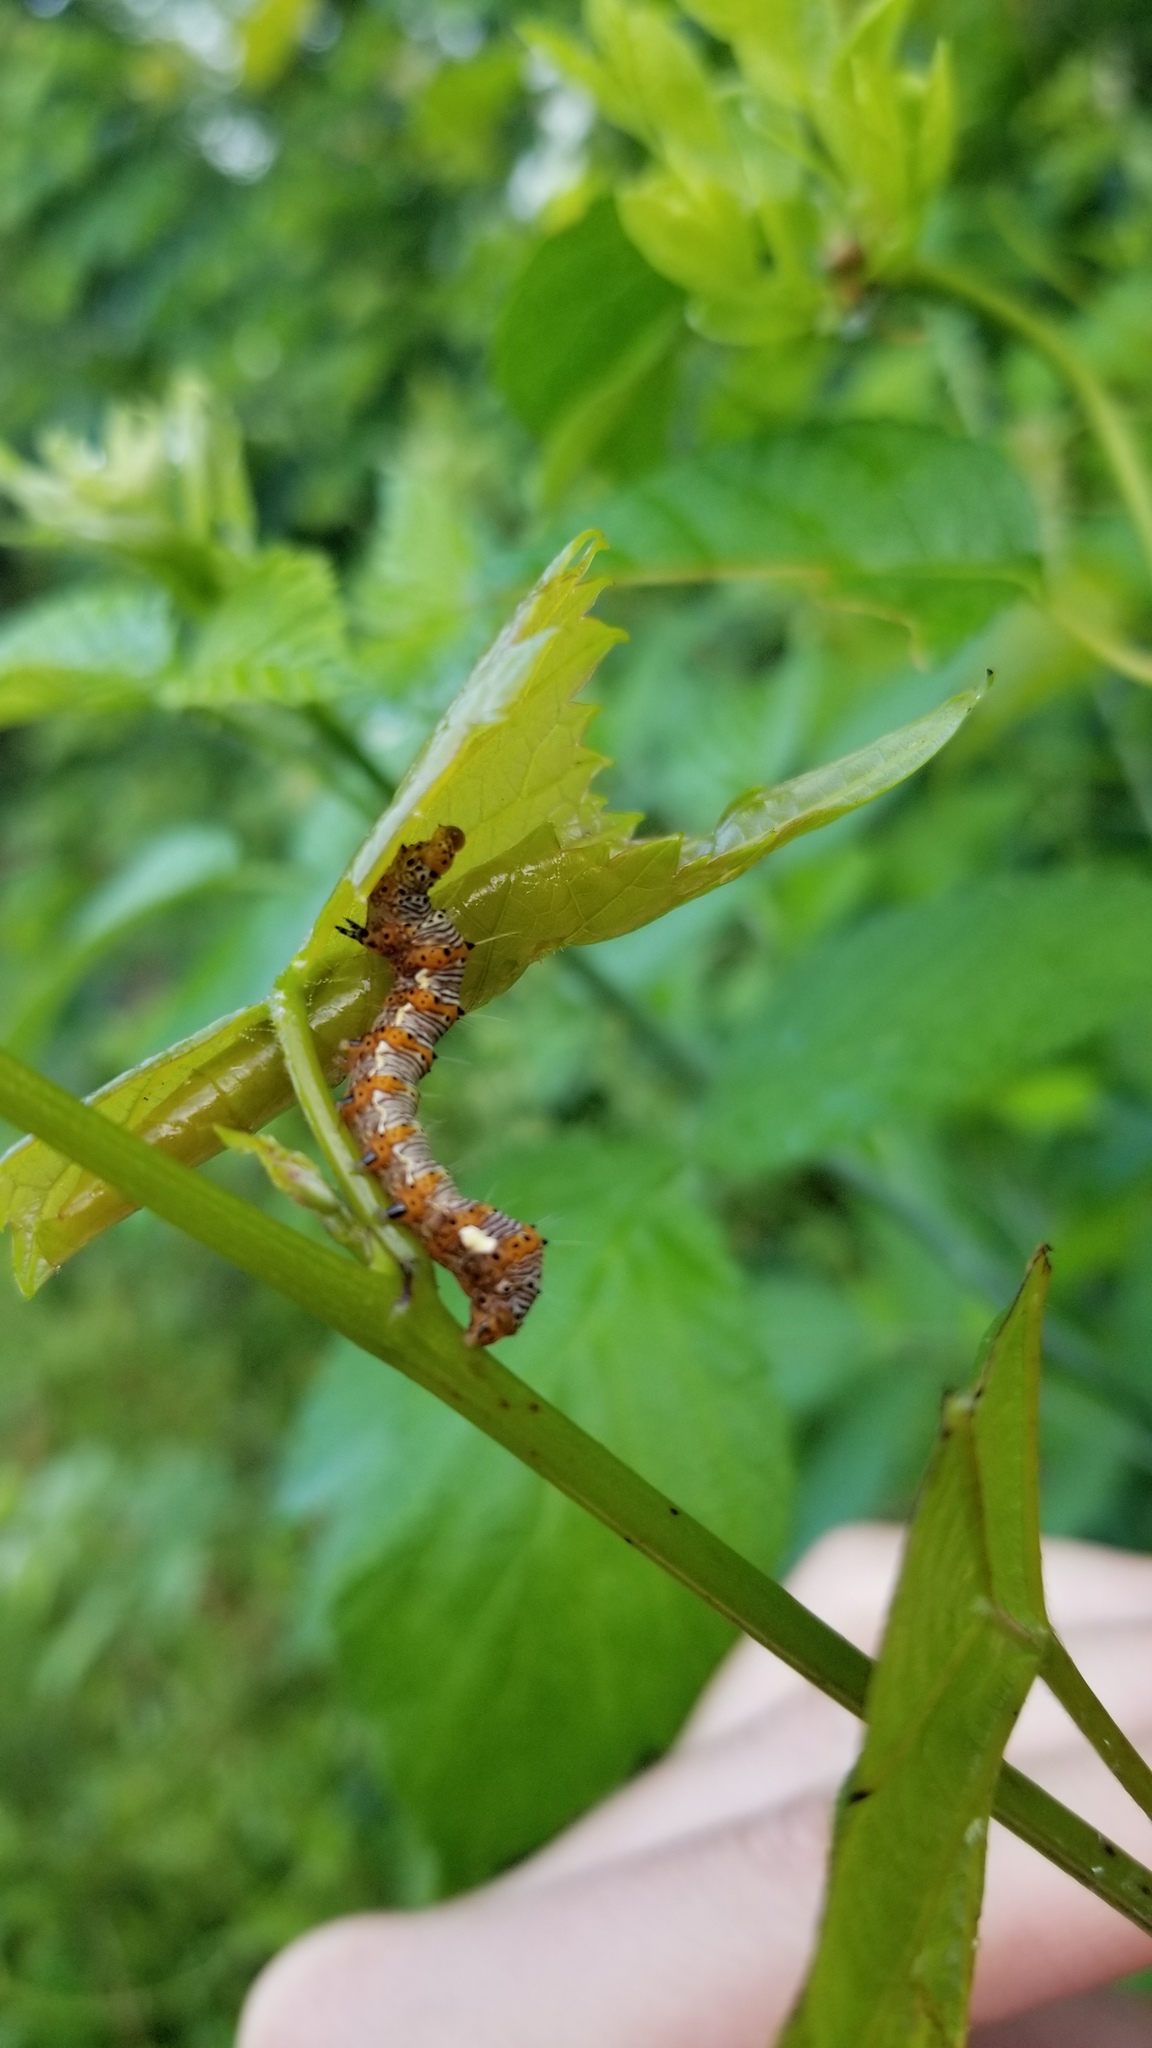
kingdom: Animalia
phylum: Arthropoda
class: Insecta
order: Lepidoptera
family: Noctuidae
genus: Alypia
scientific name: Alypia octomaculata
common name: Eight-spotted forester
